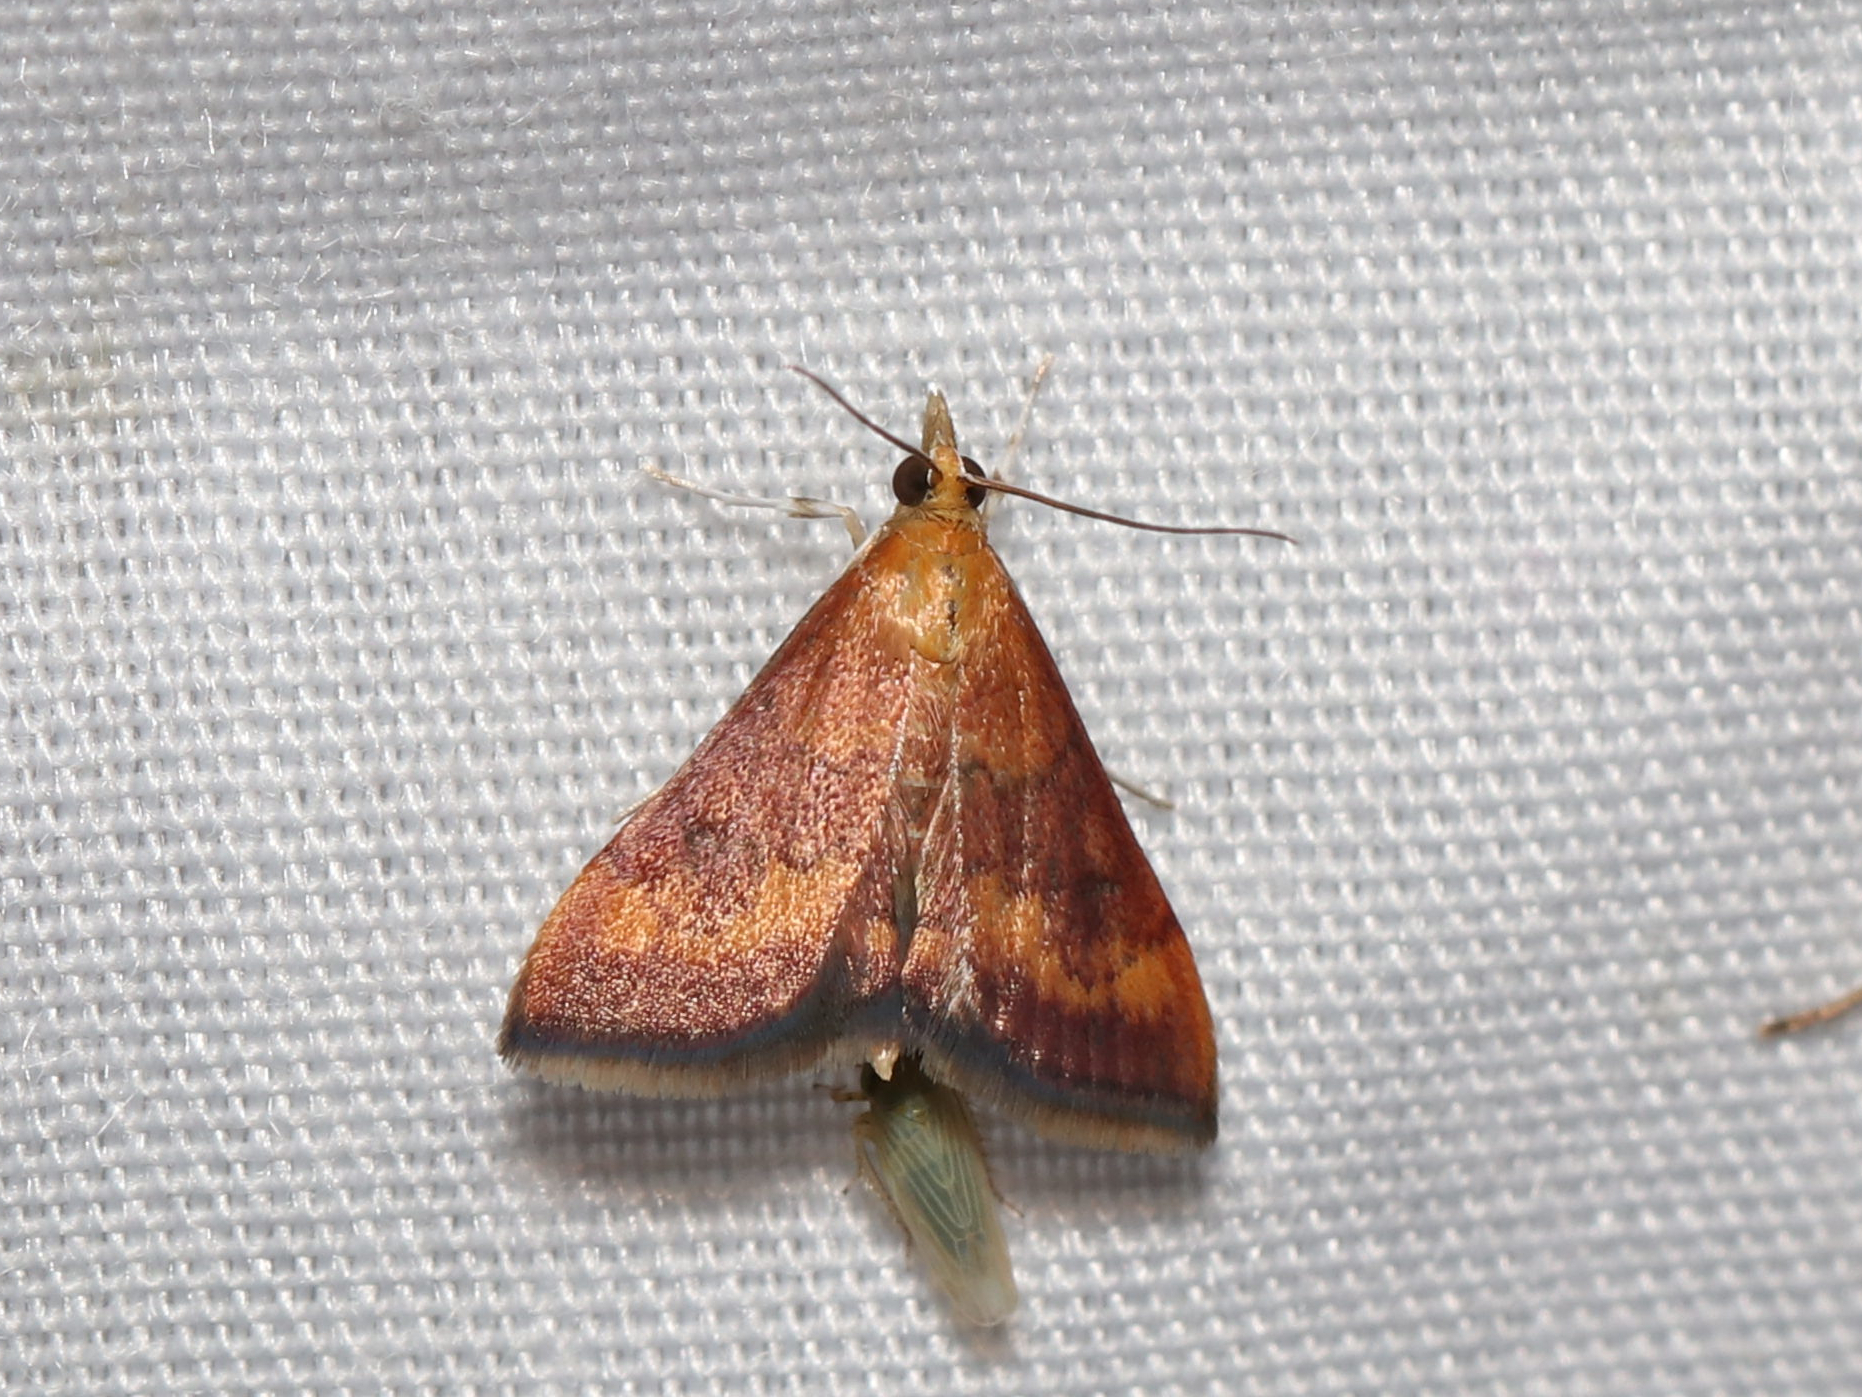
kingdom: Animalia
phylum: Arthropoda
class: Insecta
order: Lepidoptera
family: Crambidae
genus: Pyrausta
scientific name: Pyrausta rubricalis
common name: Variable reddish pyrausta
